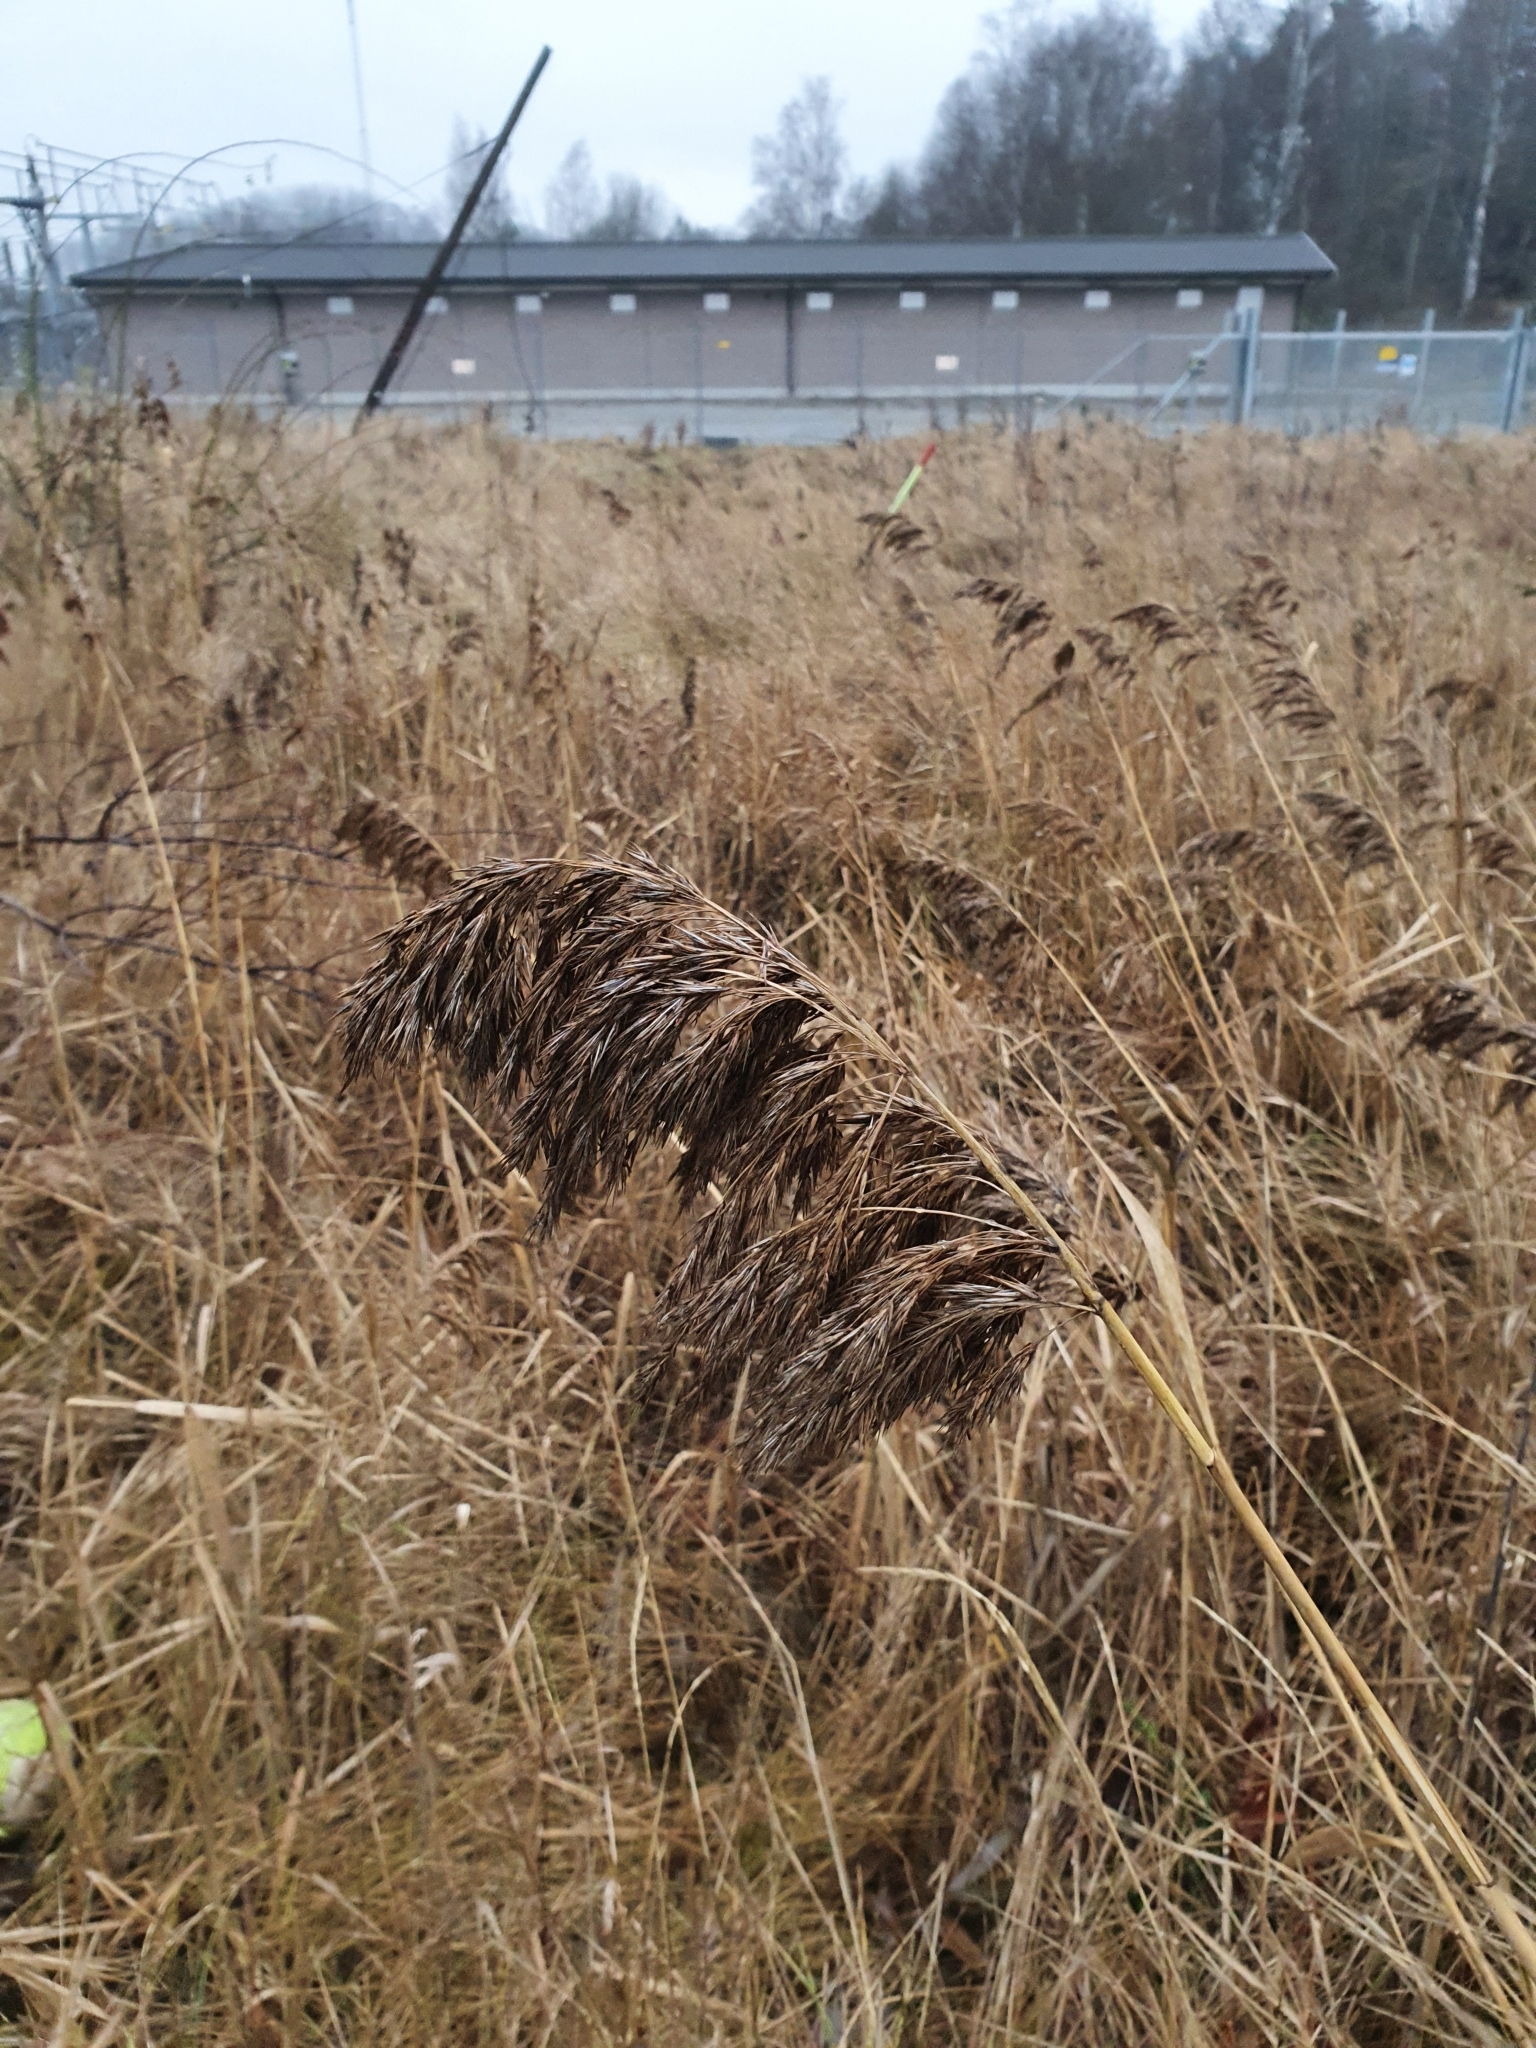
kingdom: Plantae
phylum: Tracheophyta
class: Liliopsida
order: Poales
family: Poaceae
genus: Phragmites
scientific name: Phragmites australis
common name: Common reed
